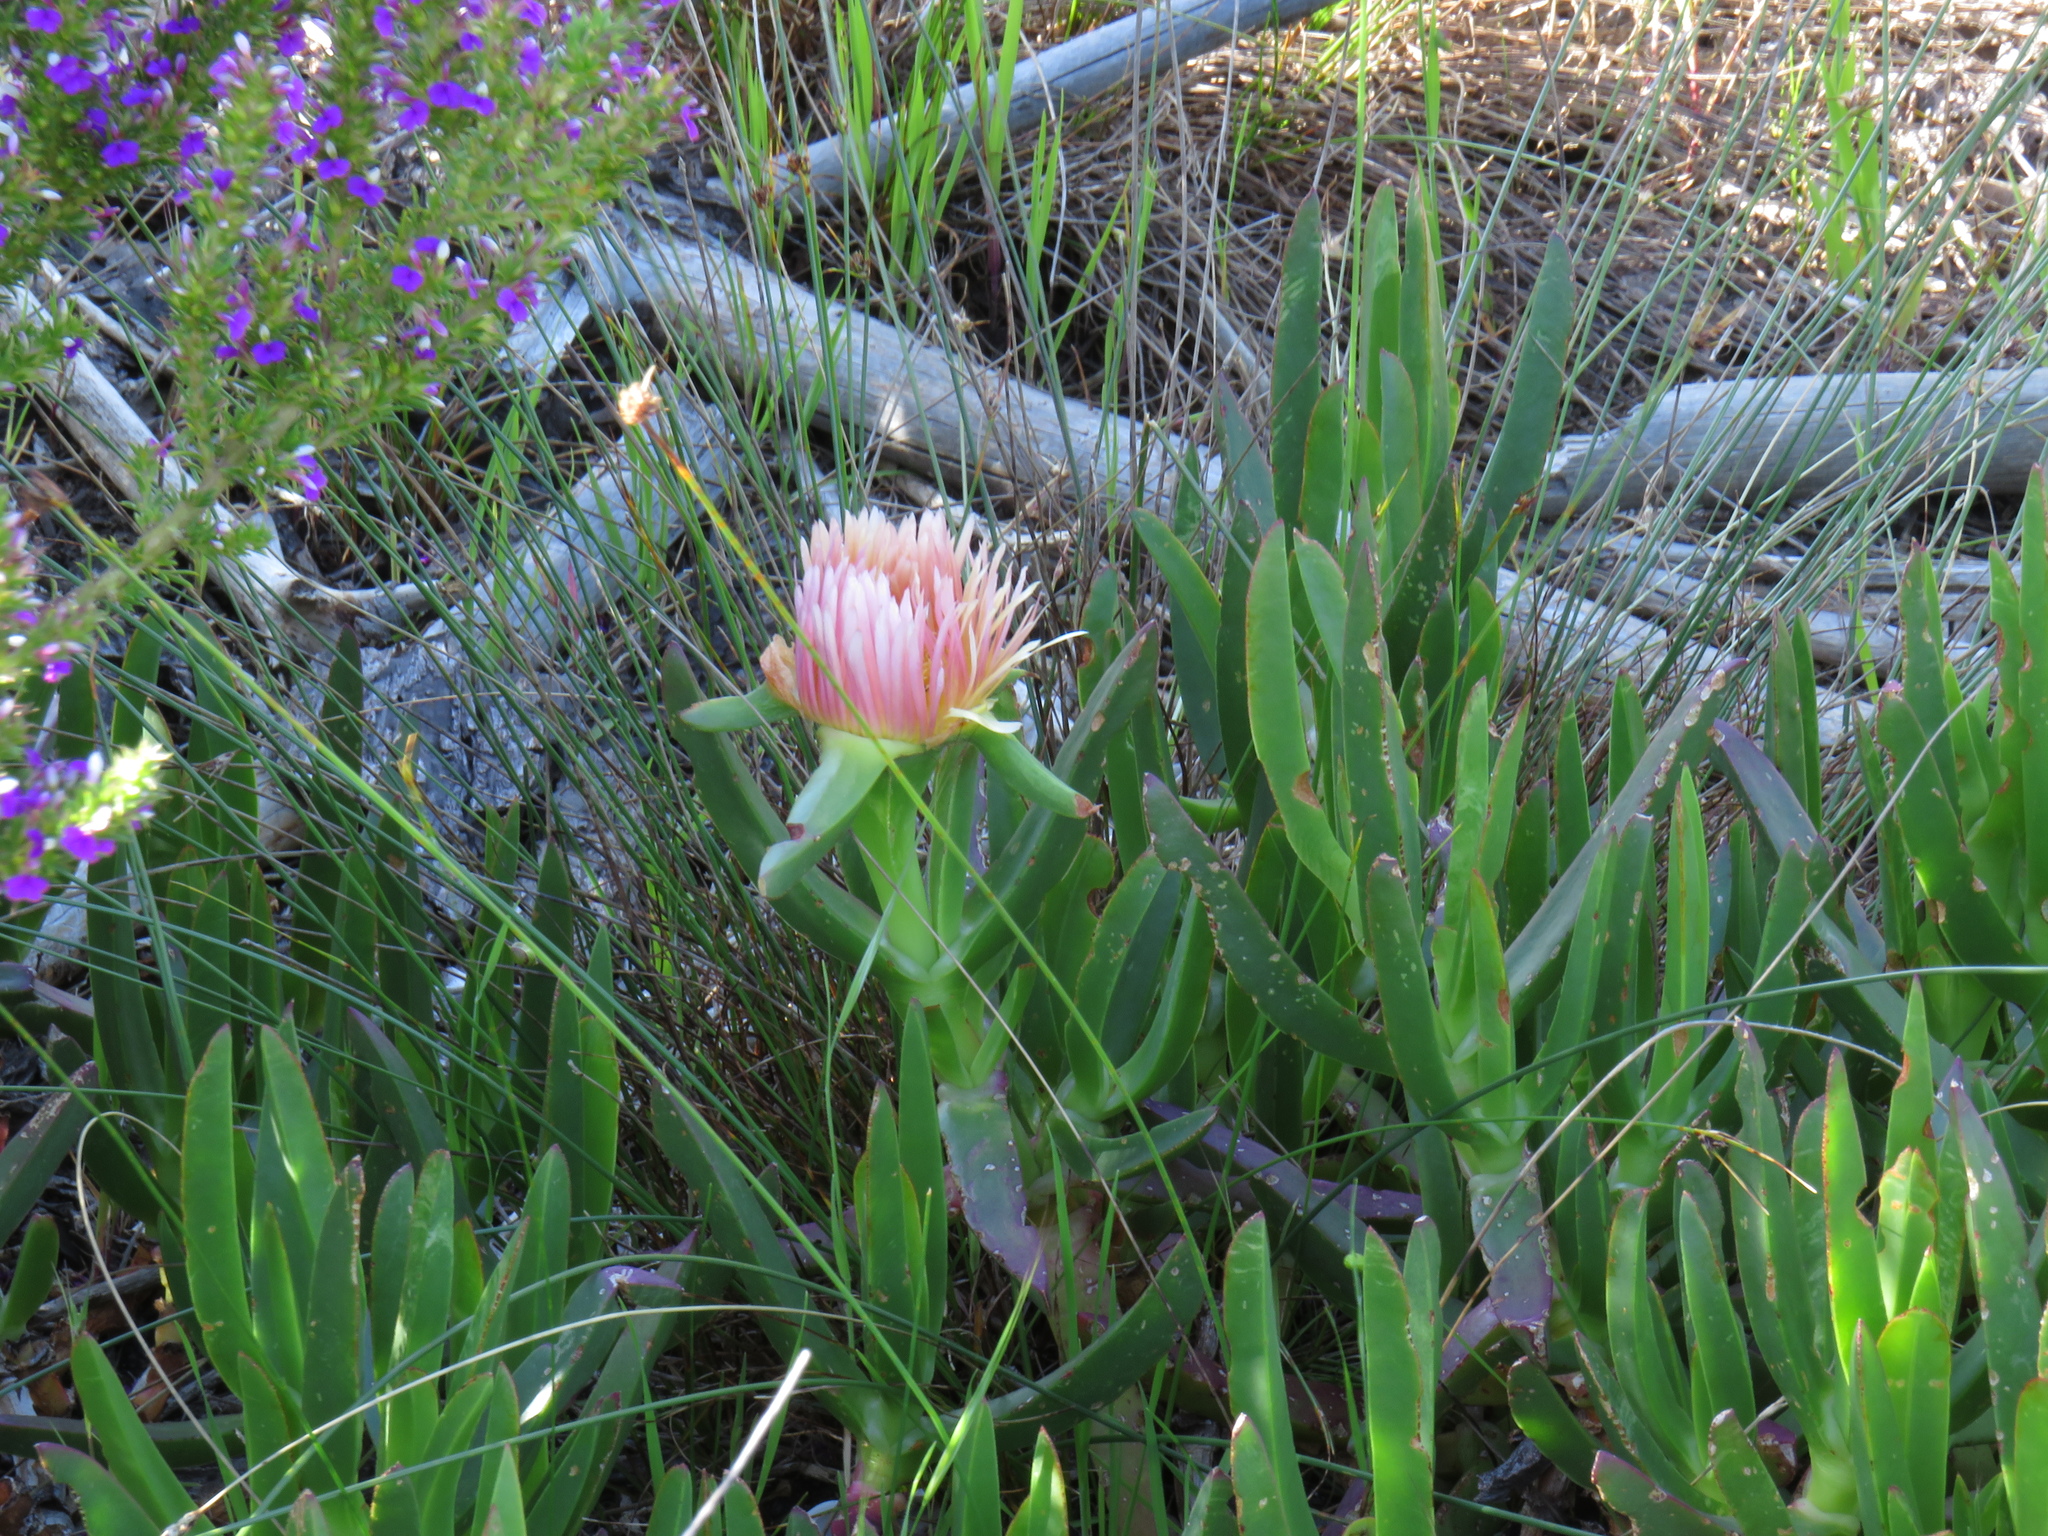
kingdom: Plantae
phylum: Tracheophyta
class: Magnoliopsida
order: Caryophyllales
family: Aizoaceae
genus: Carpobrotus
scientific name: Carpobrotus edulis
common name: Hottentot-fig
